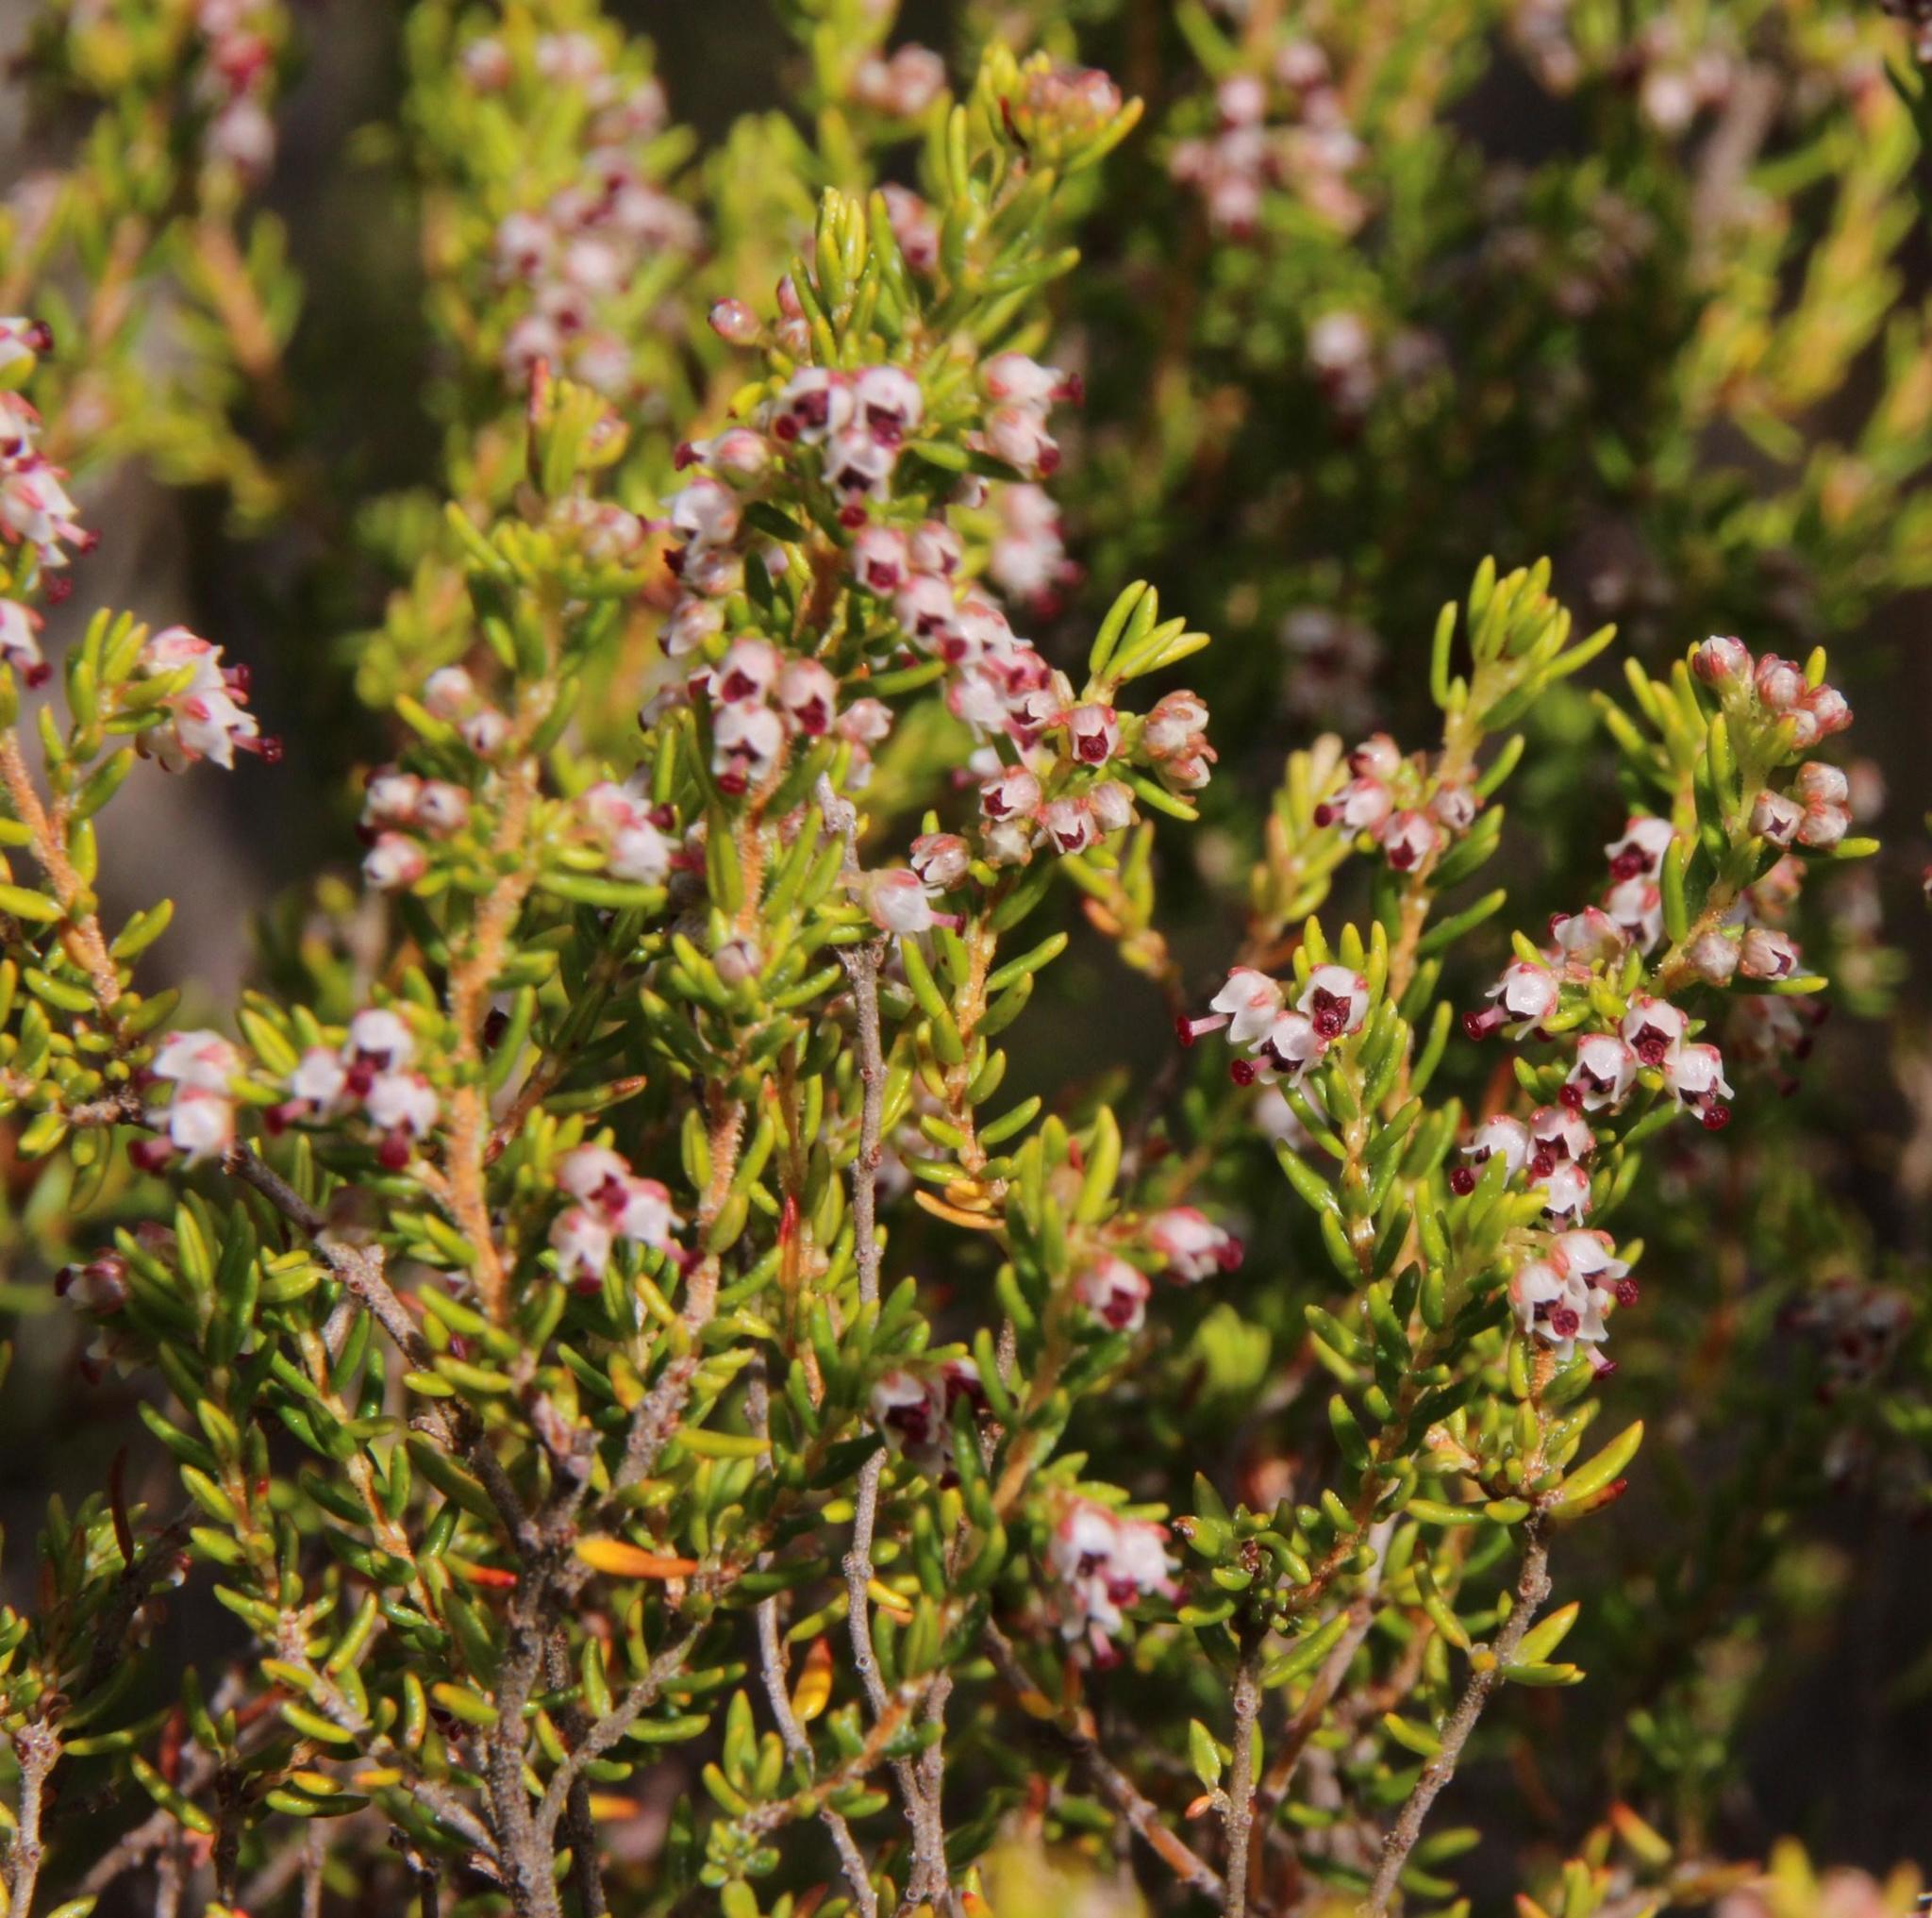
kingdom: Plantae
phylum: Tracheophyta
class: Magnoliopsida
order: Ericales
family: Ericaceae
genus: Erica
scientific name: Erica hispidula
